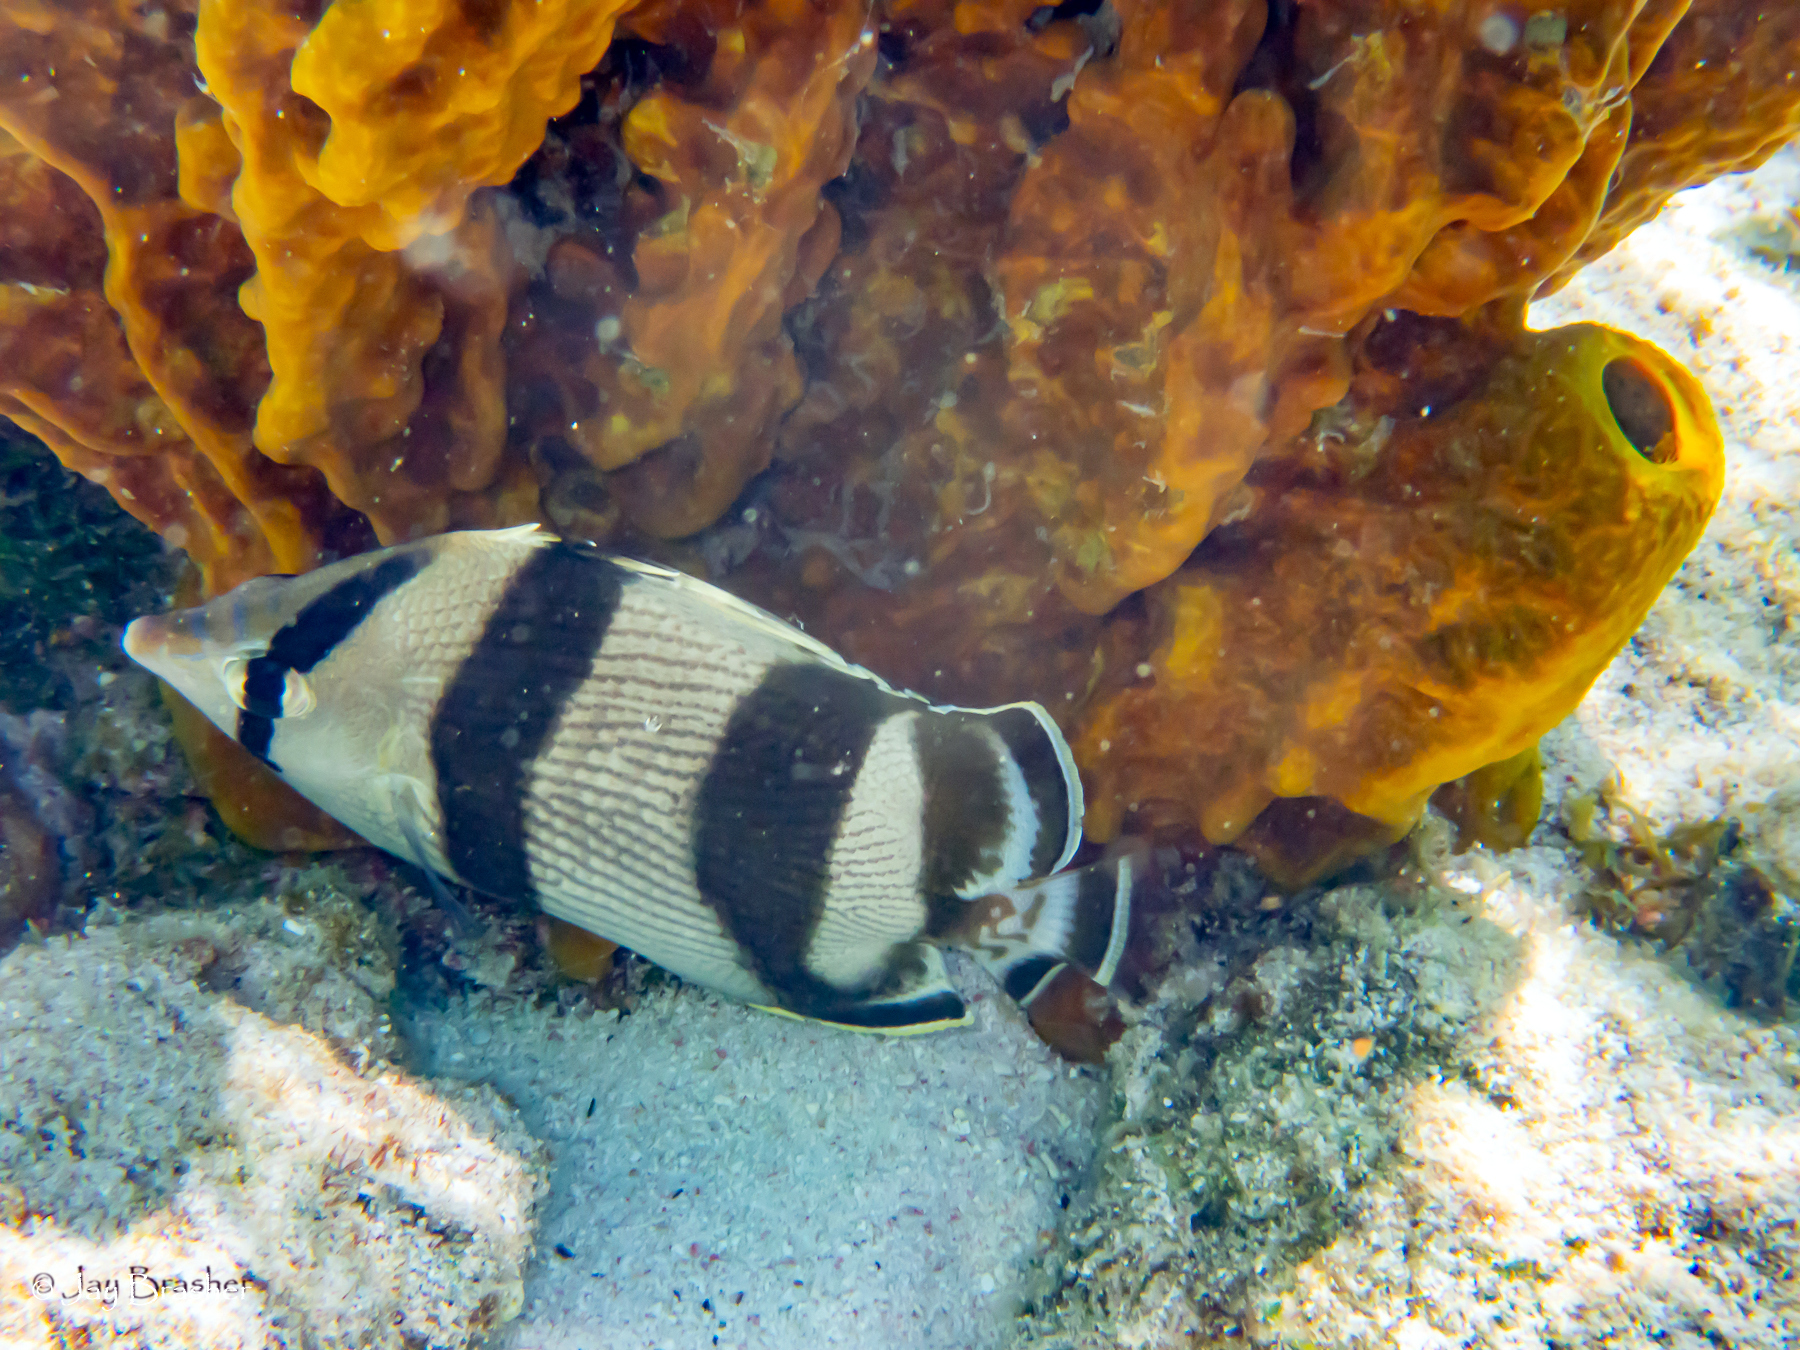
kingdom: Animalia
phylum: Chordata
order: Perciformes
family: Chaetodontidae
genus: Chaetodon
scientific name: Chaetodon striatus
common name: Banded butterflyfish
